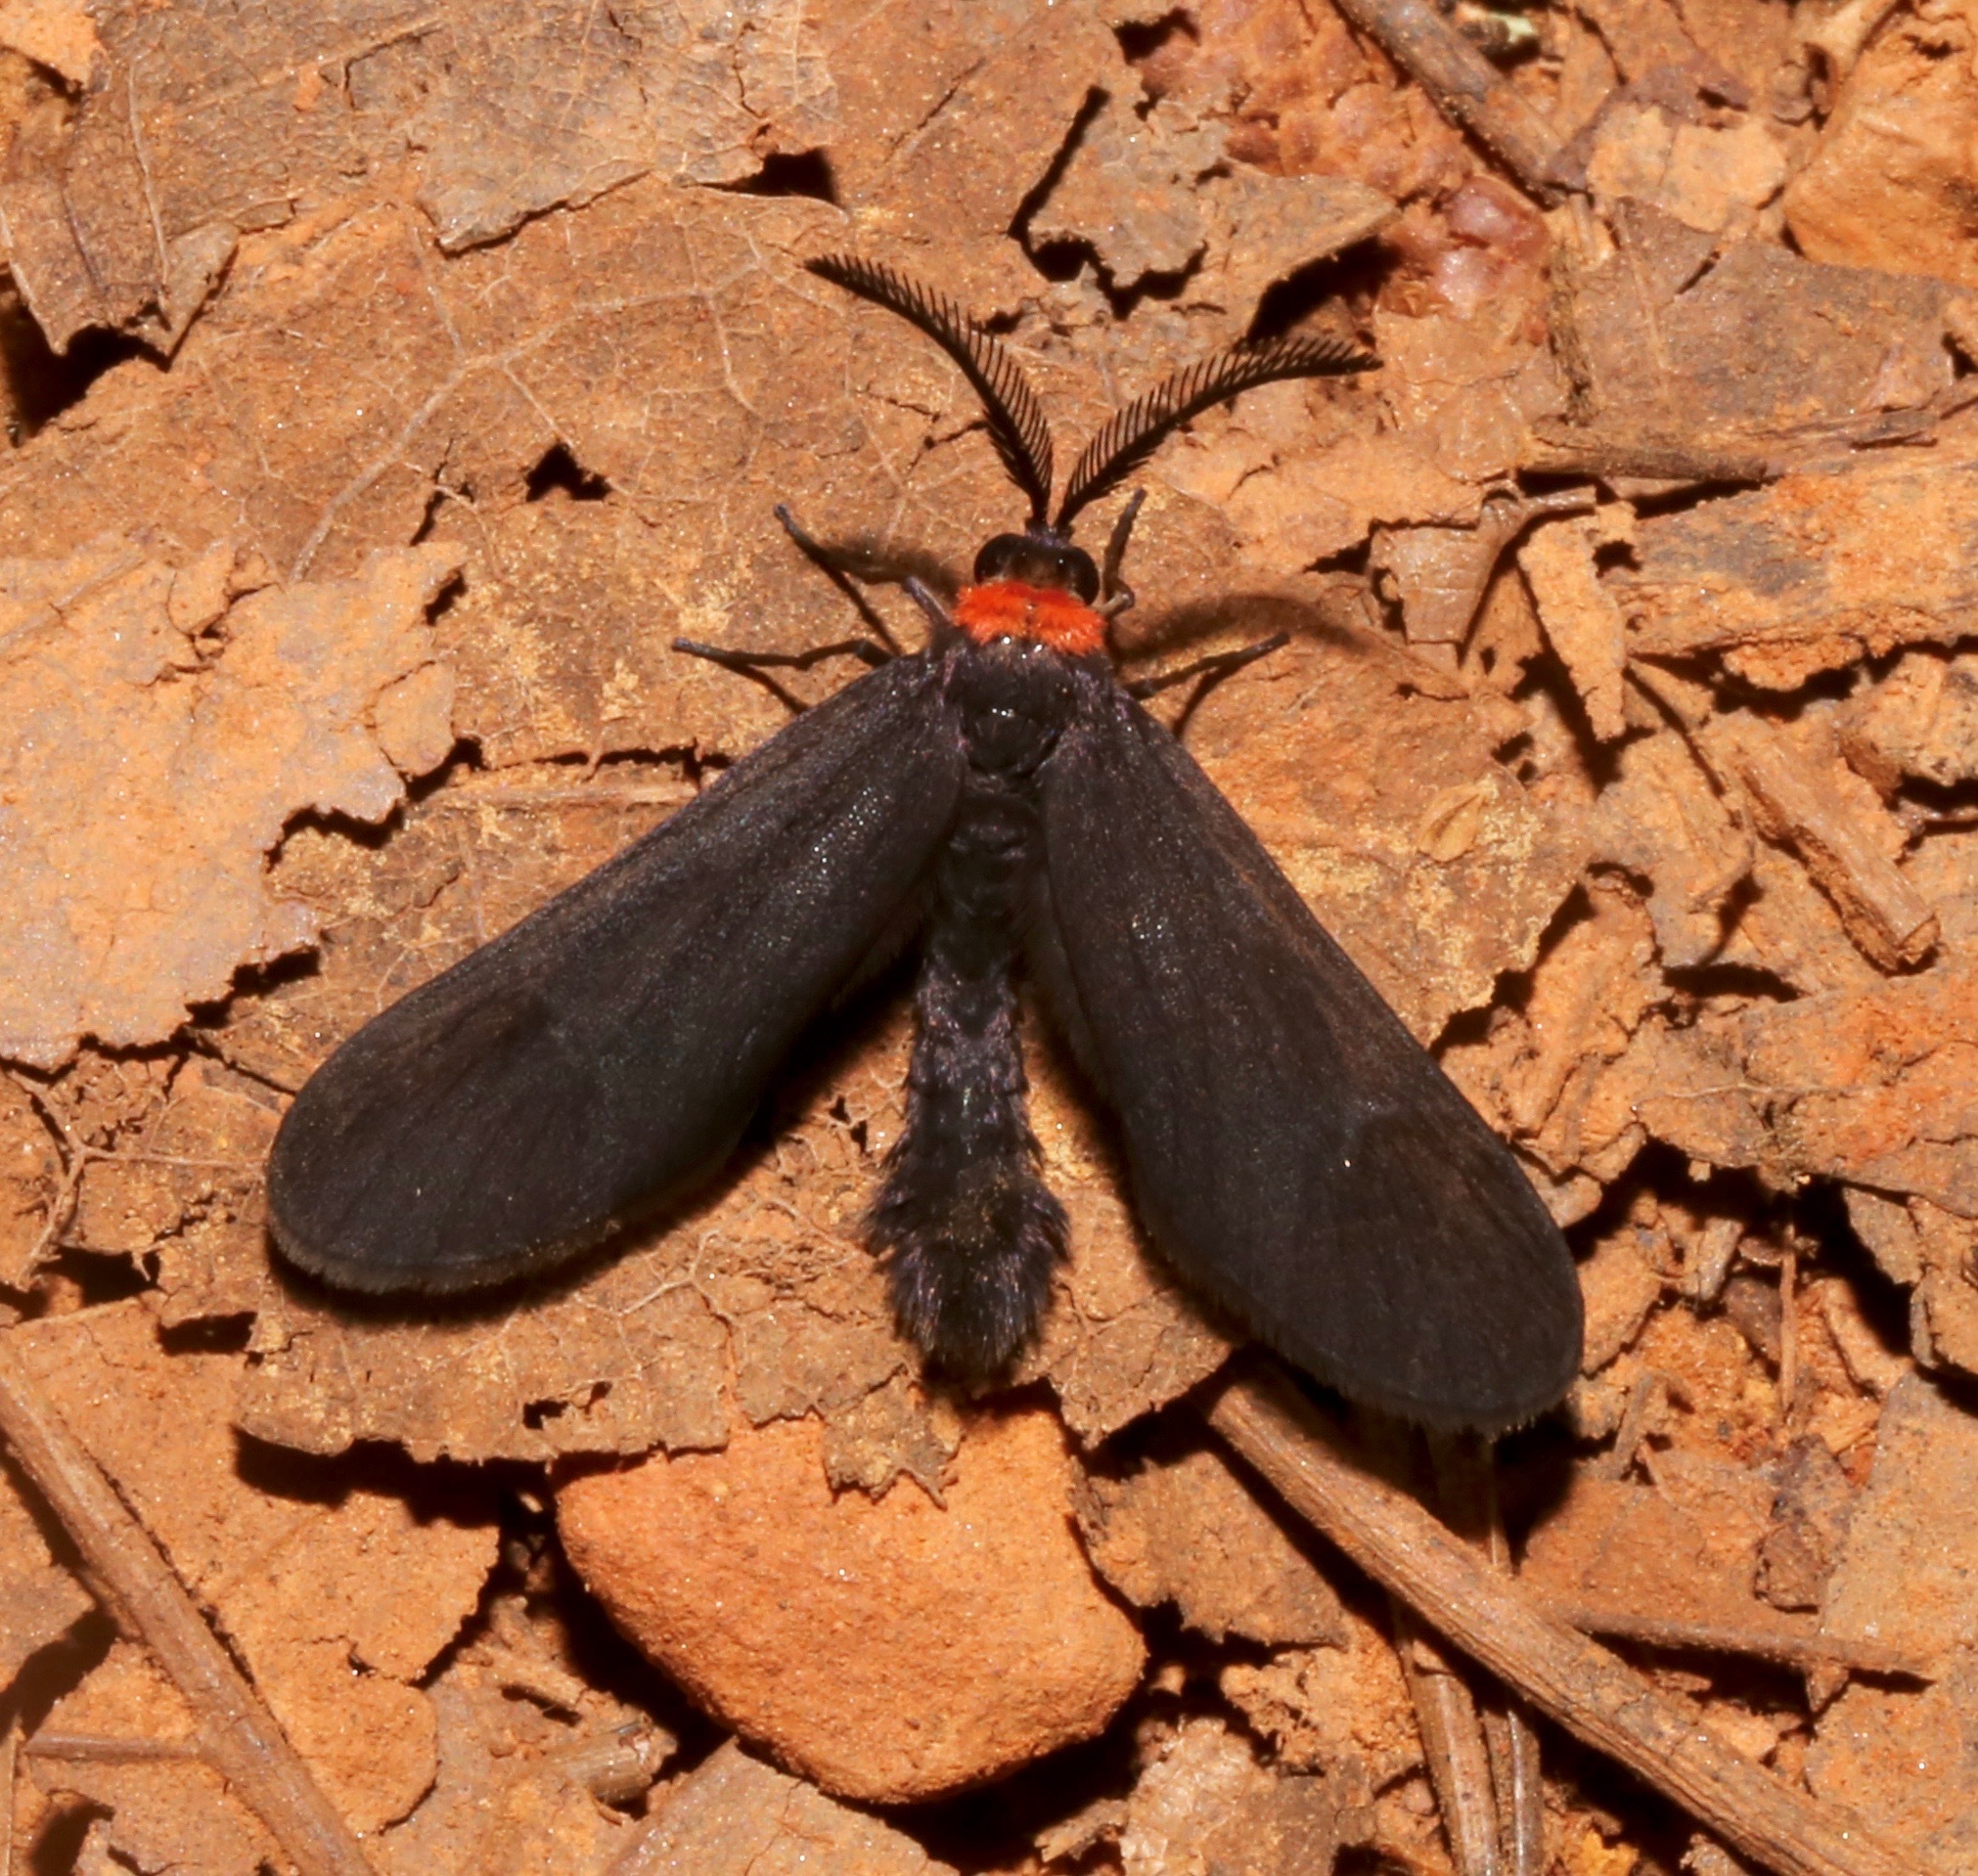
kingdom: Animalia
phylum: Arthropoda
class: Insecta
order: Lepidoptera
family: Zygaenidae
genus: Harrisina
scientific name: Harrisina americana
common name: Grapeleaf skeletonizer moth
